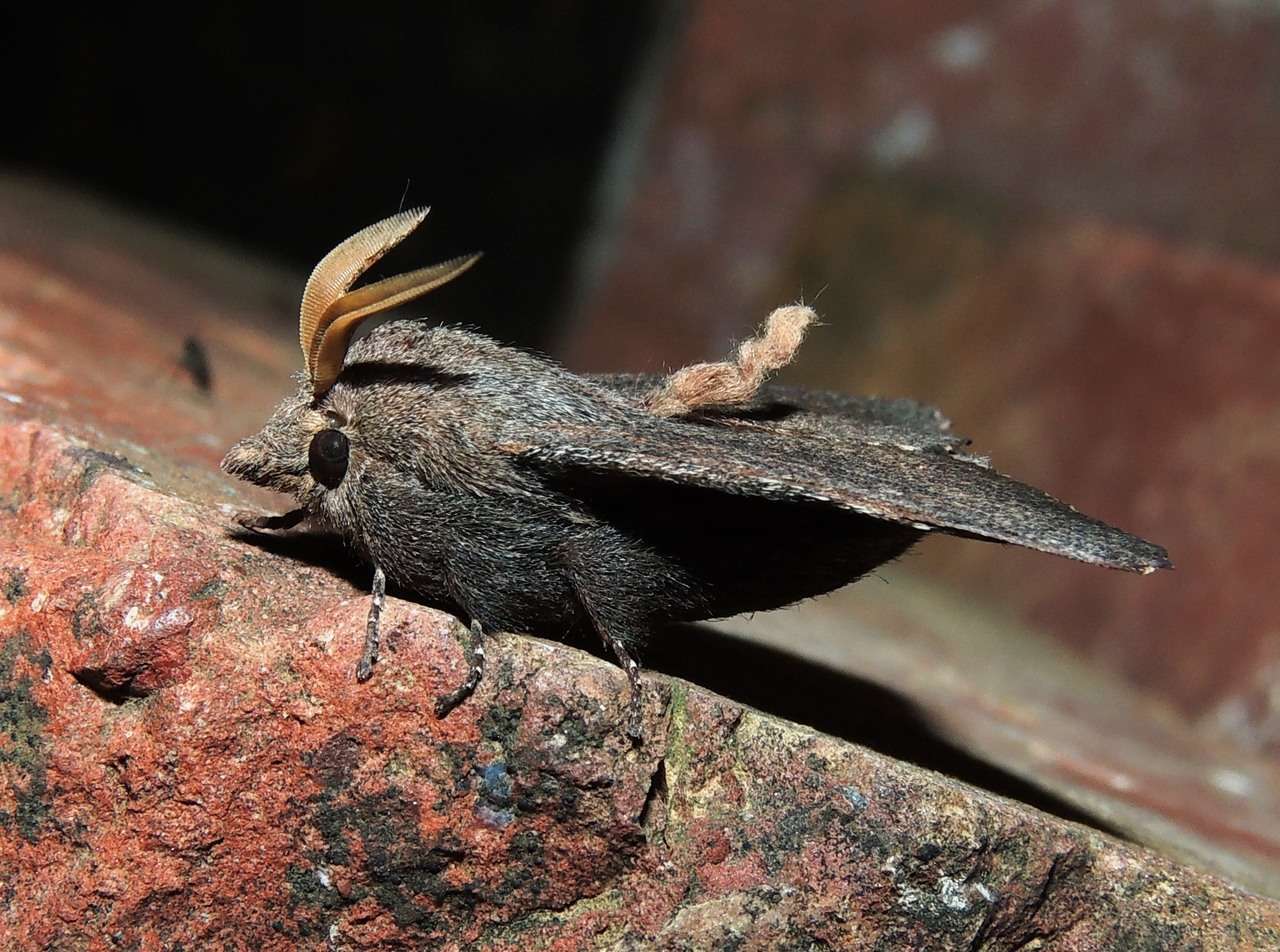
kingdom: Animalia
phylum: Arthropoda
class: Insecta
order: Lepidoptera
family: Lasiocampidae
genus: Pararguda
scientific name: Pararguda rufescens
